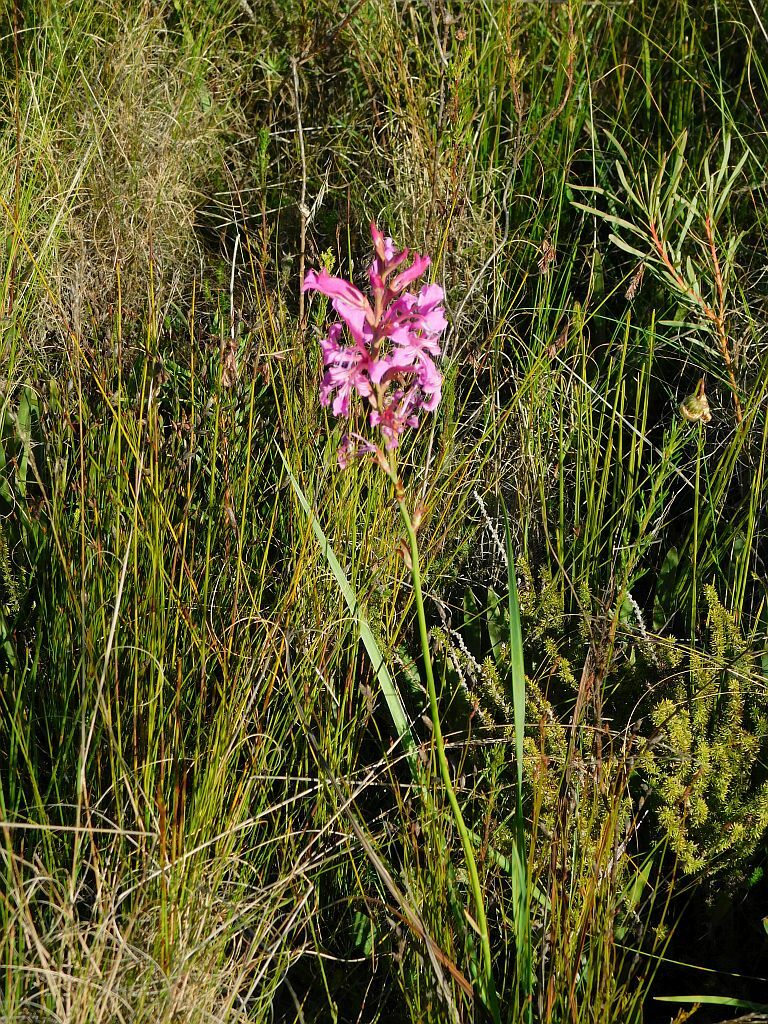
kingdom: Plantae
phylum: Tracheophyta
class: Liliopsida
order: Asparagales
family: Iridaceae
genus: Tritoniopsis
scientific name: Tritoniopsis lata
